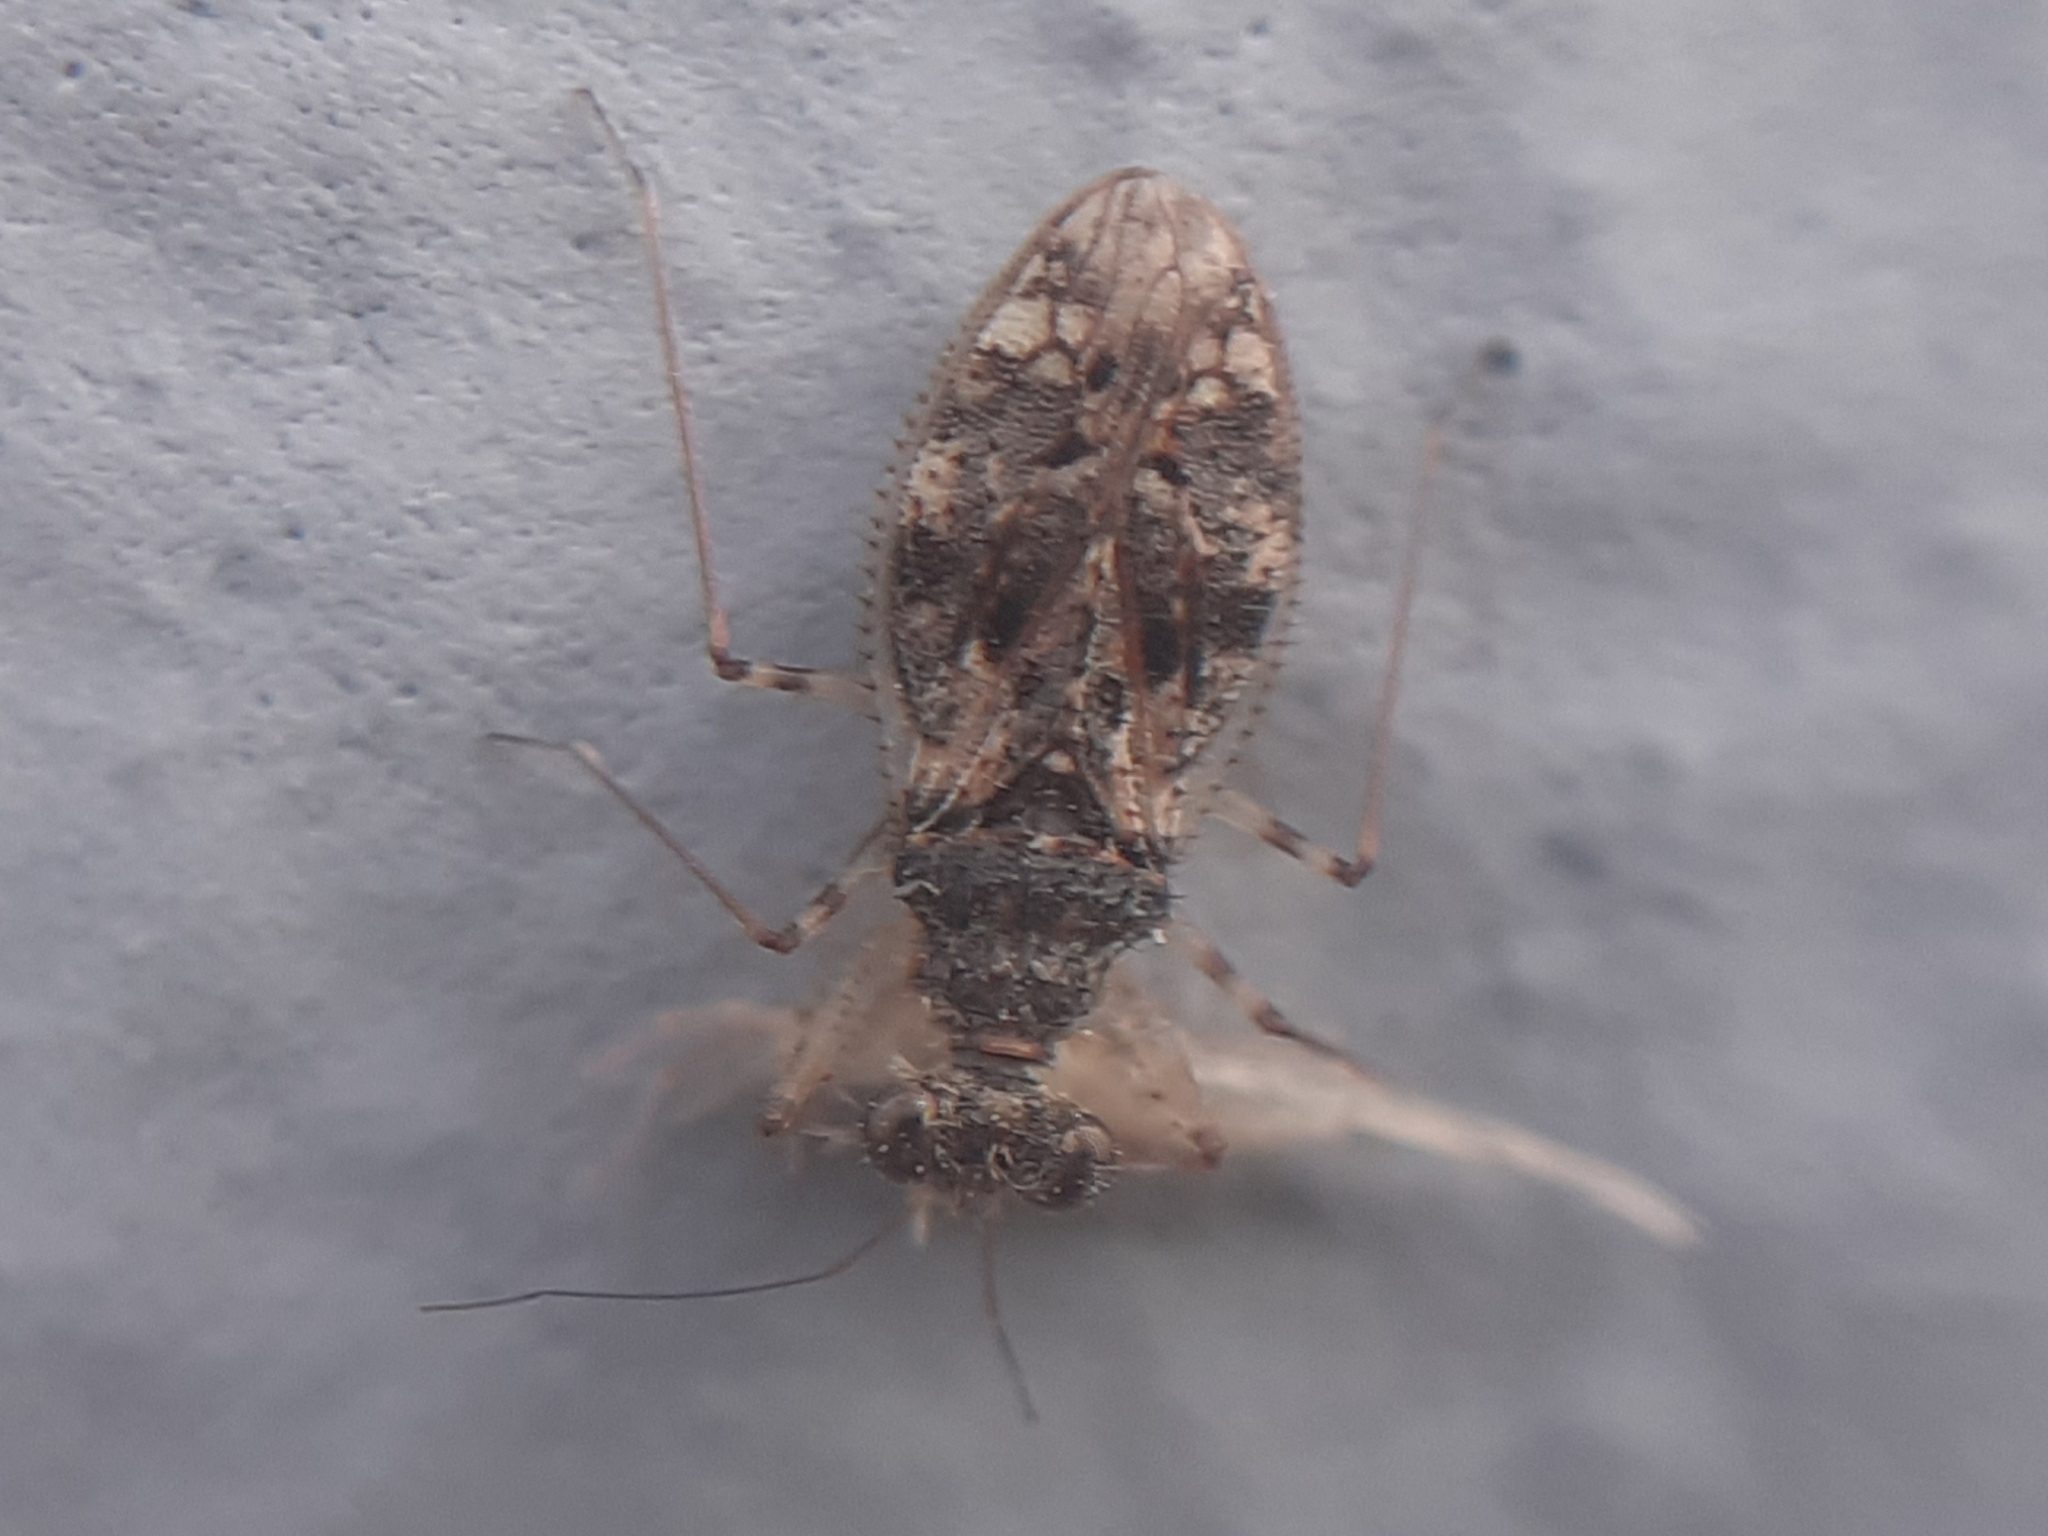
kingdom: Animalia
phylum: Arthropoda
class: Insecta
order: Hemiptera
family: Leptopodidae
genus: Leptopus
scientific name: Leptopus marmoratus
